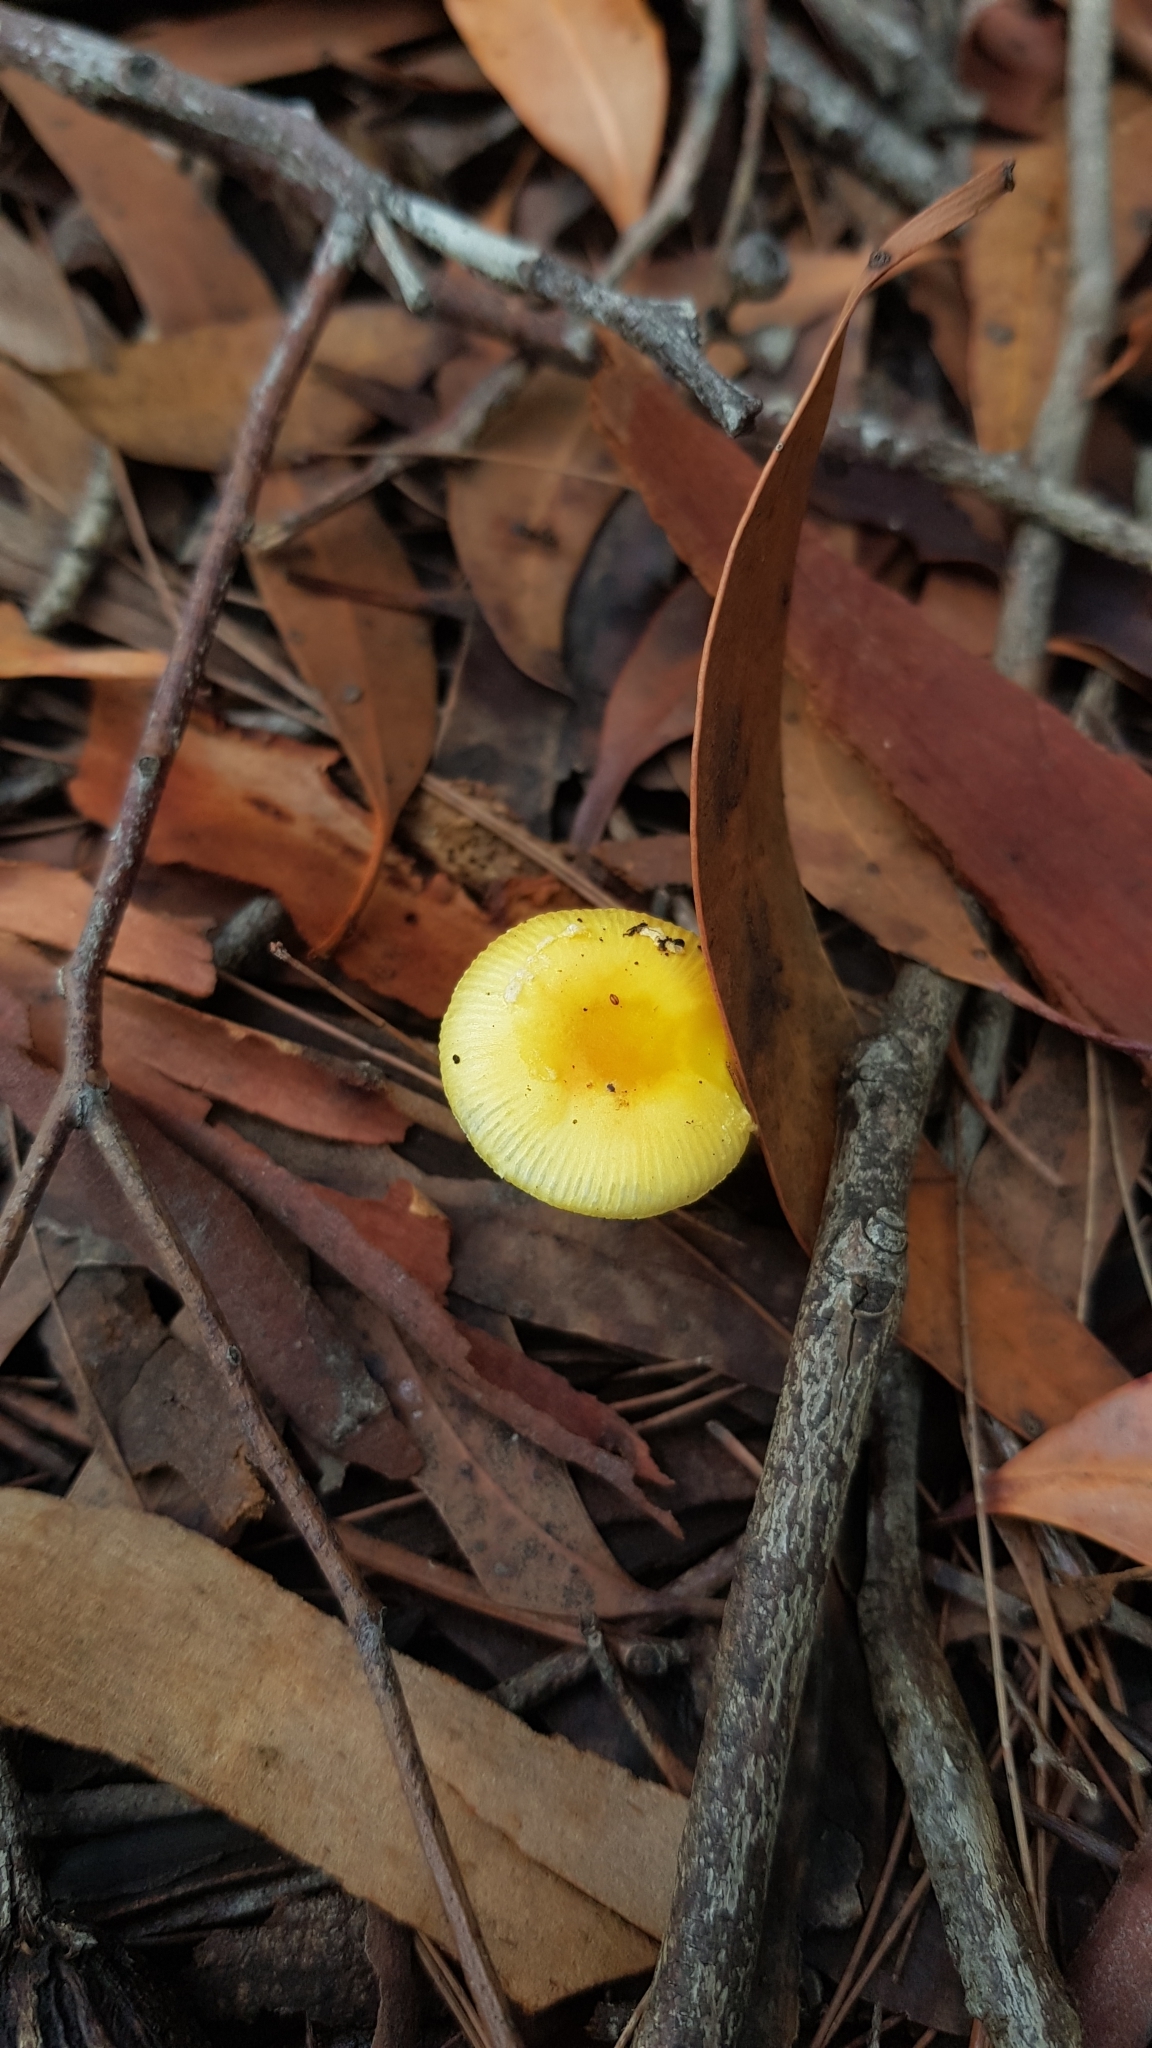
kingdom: Fungi
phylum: Basidiomycota
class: Agaricomycetes
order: Agaricales
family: Amanitaceae
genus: Amanita
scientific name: Amanita xanthocephala
